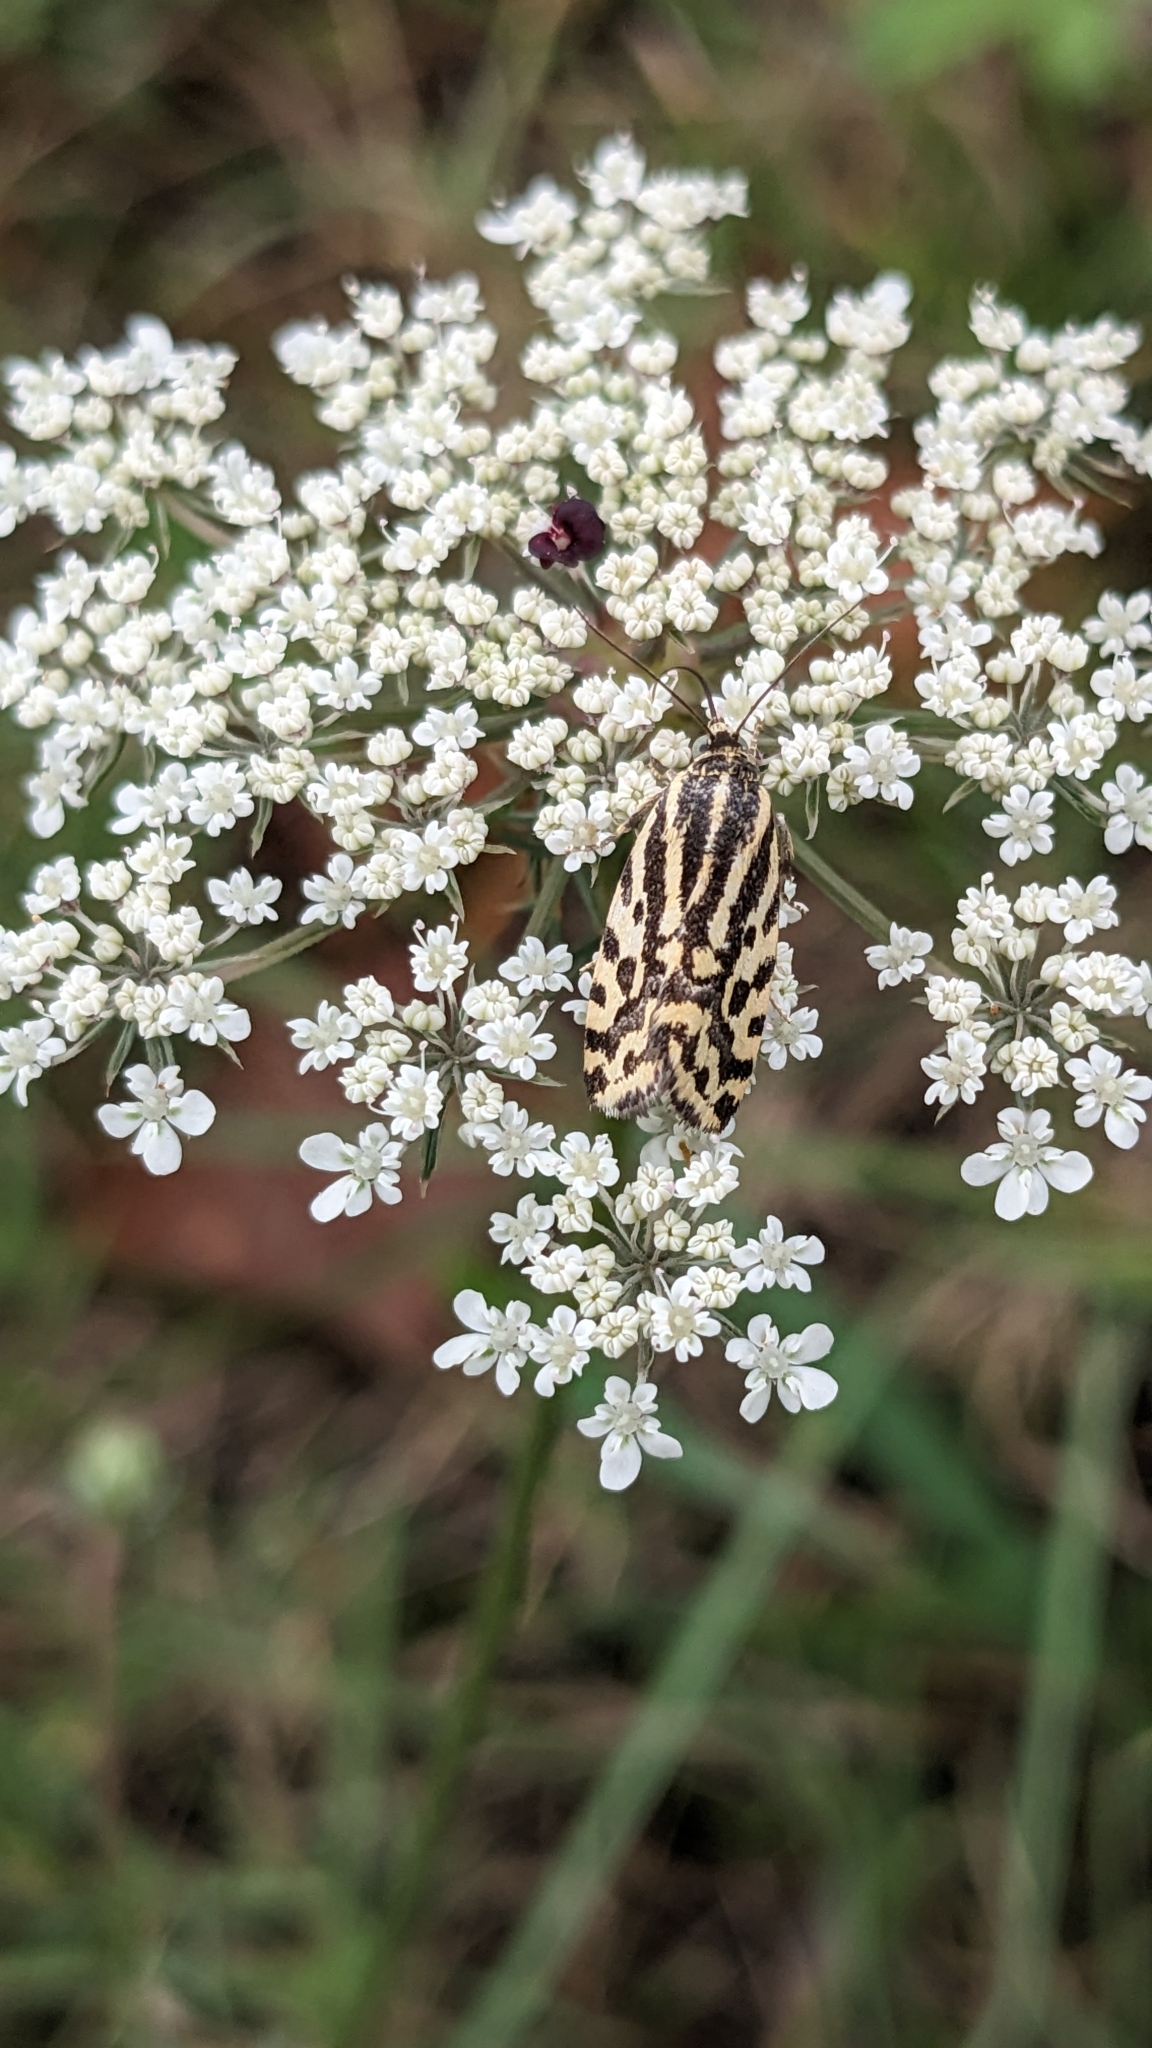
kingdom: Animalia
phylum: Arthropoda
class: Insecta
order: Lepidoptera
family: Noctuidae
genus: Acontia
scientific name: Acontia trabealis
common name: Spotted sulphur
